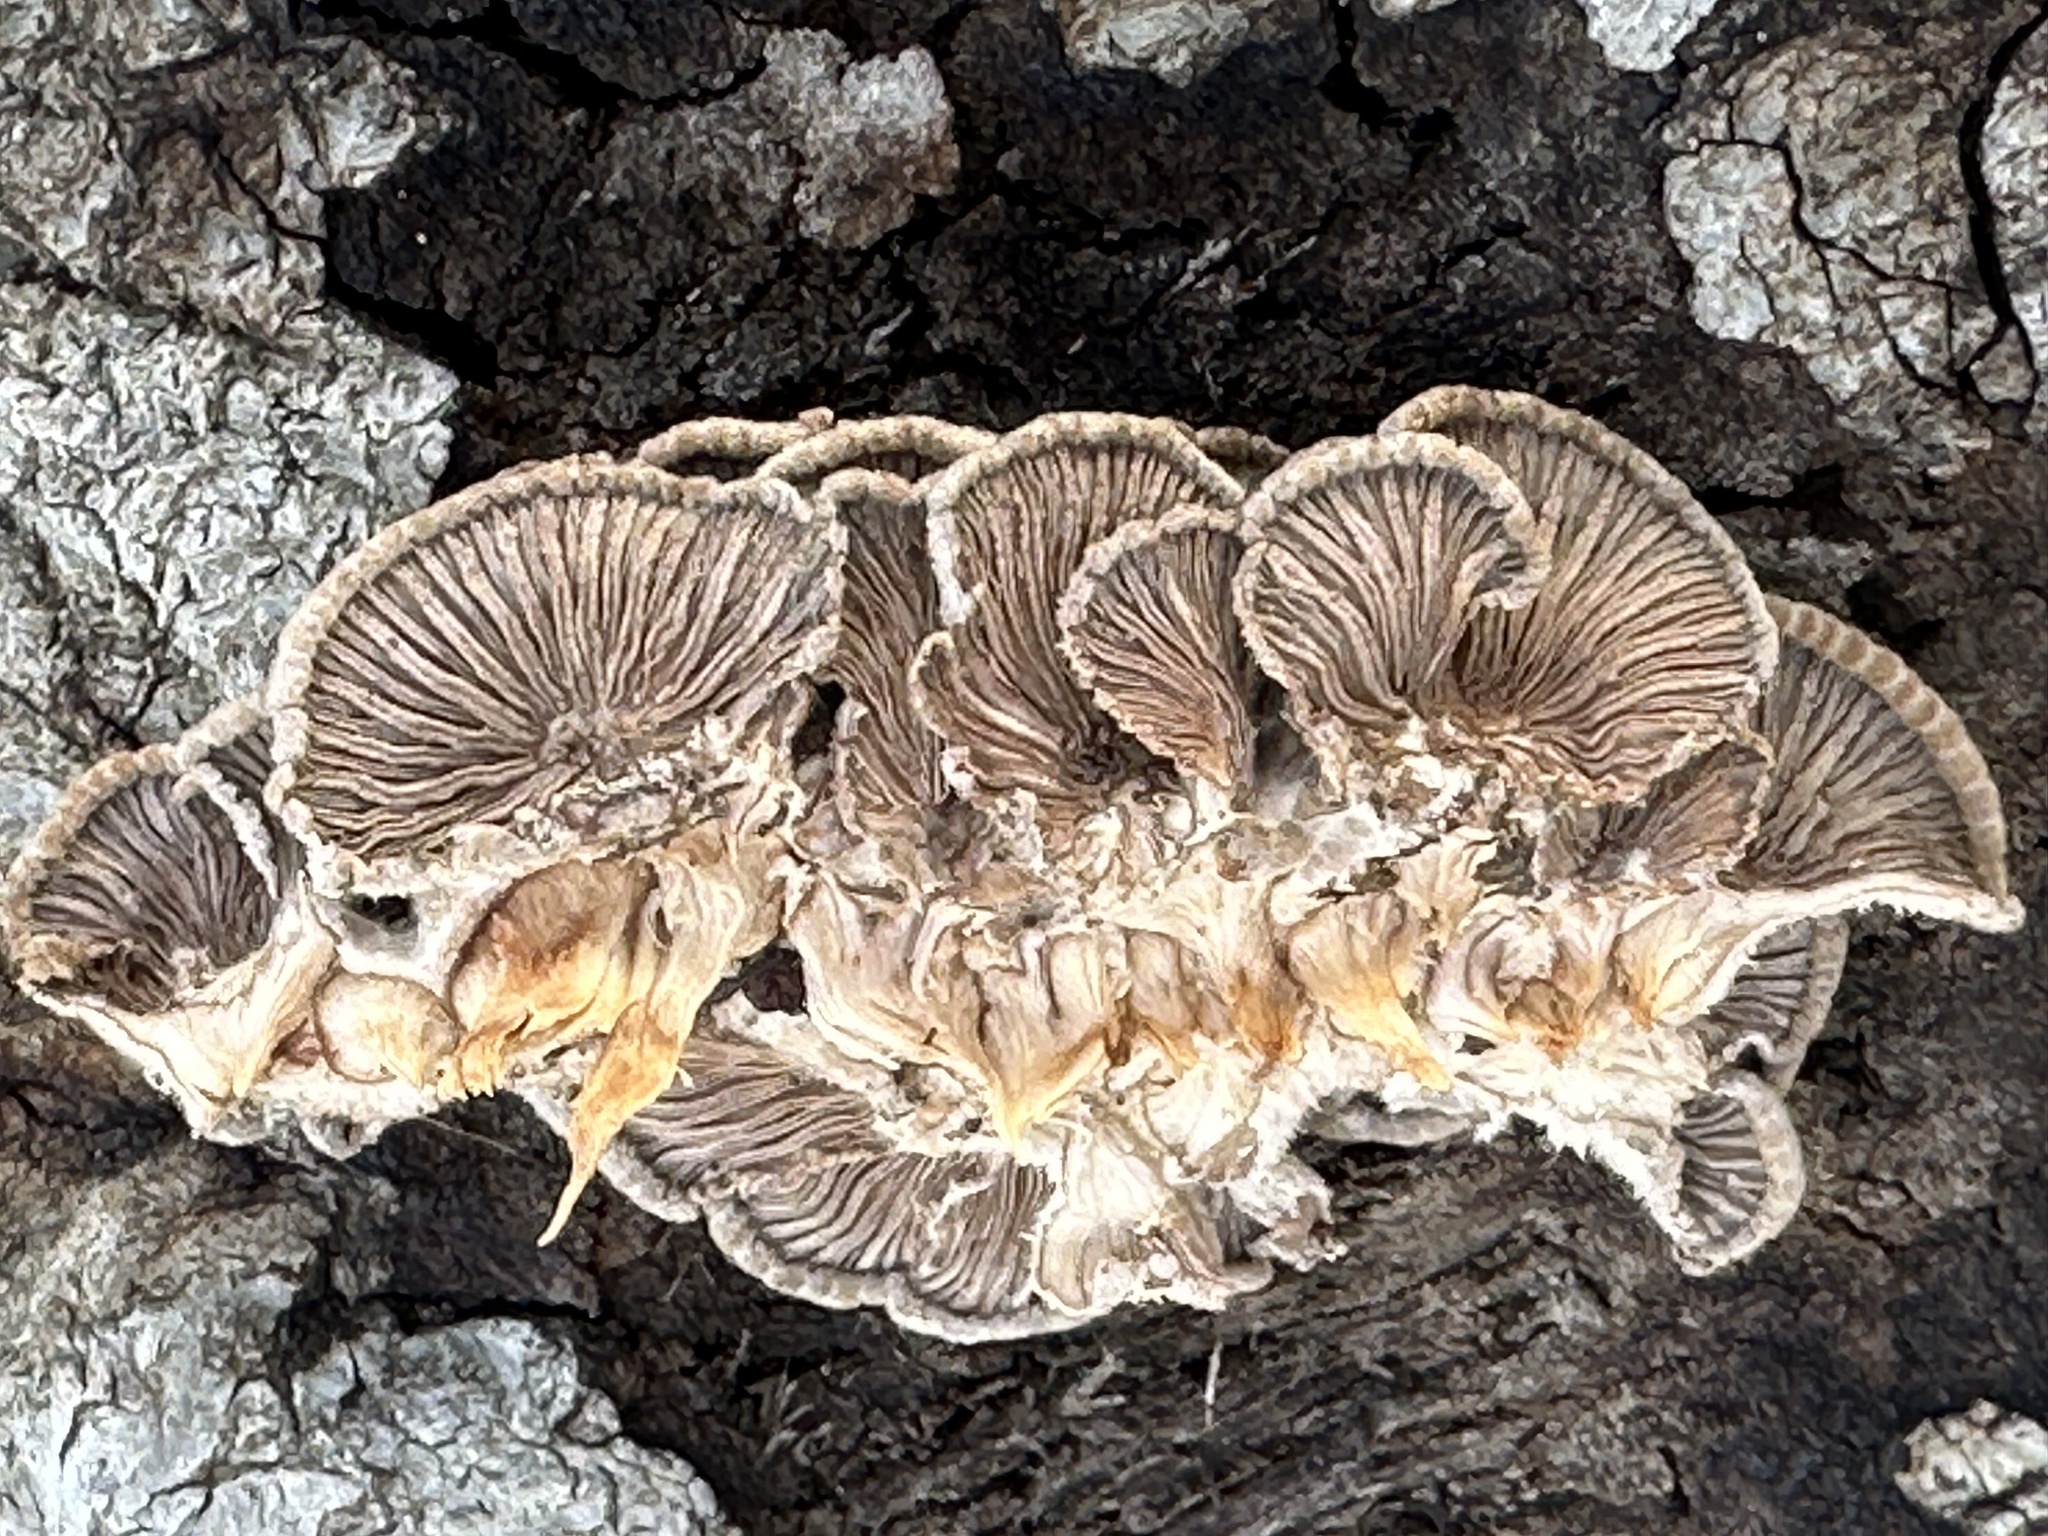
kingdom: Fungi
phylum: Basidiomycota
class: Agaricomycetes
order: Agaricales
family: Schizophyllaceae
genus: Schizophyllum
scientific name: Schizophyllum commune
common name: Common porecrust
